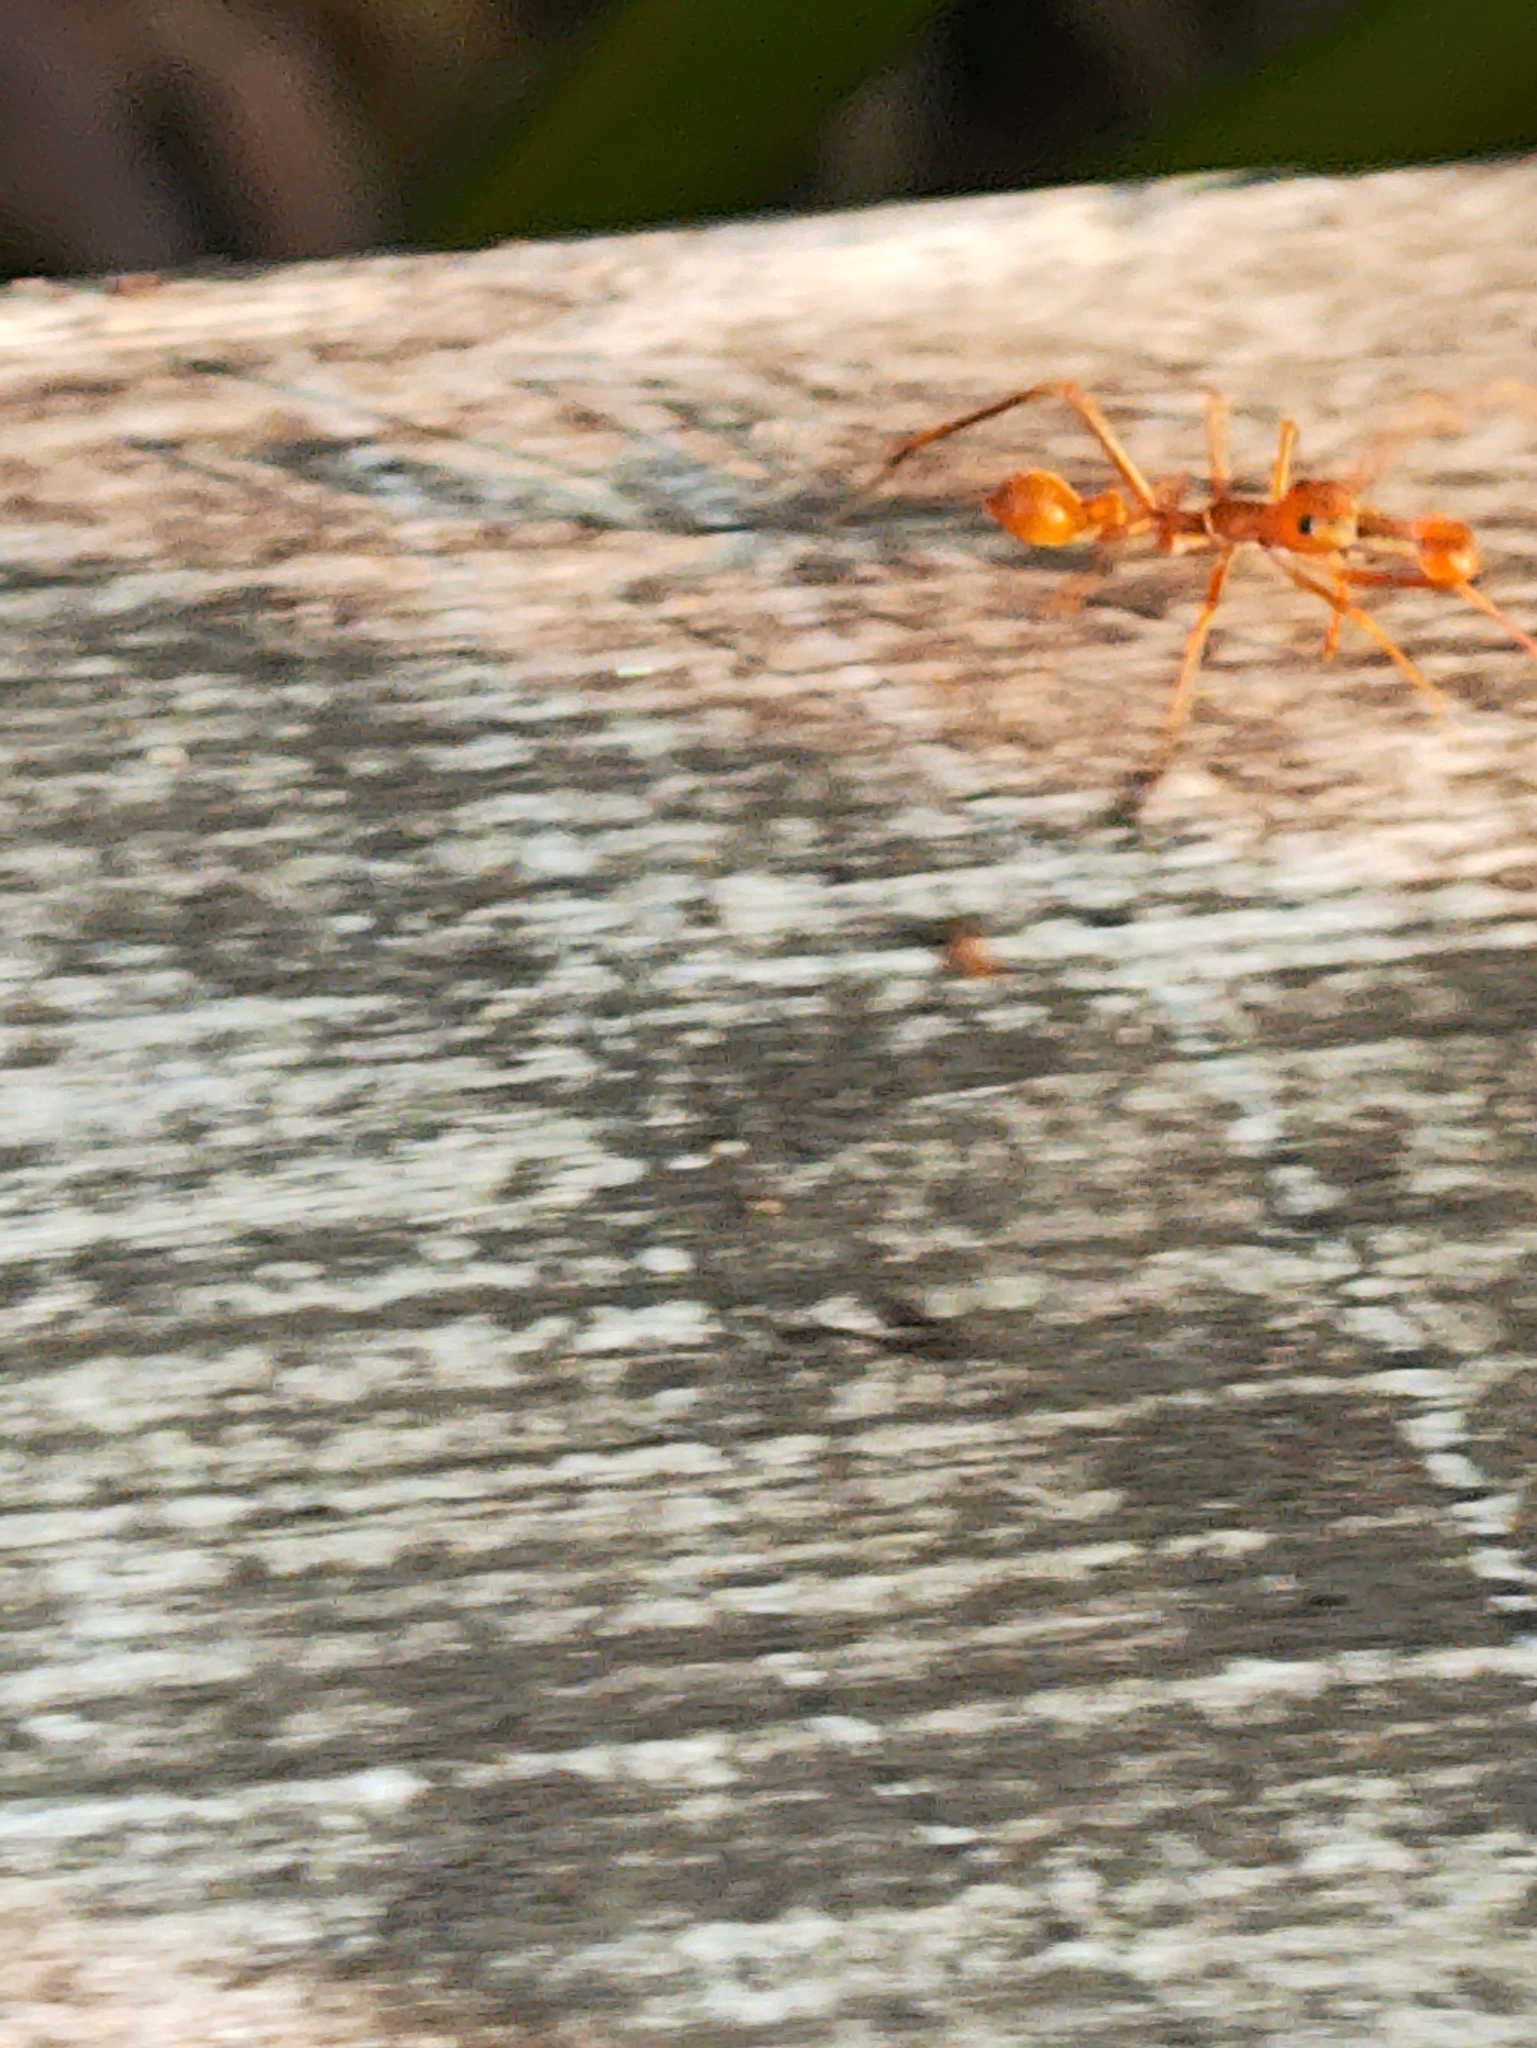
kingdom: Animalia
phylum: Arthropoda
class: Arachnida
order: Araneae
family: Salticidae
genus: Myrmaplata
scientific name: Myrmaplata plataleoides
